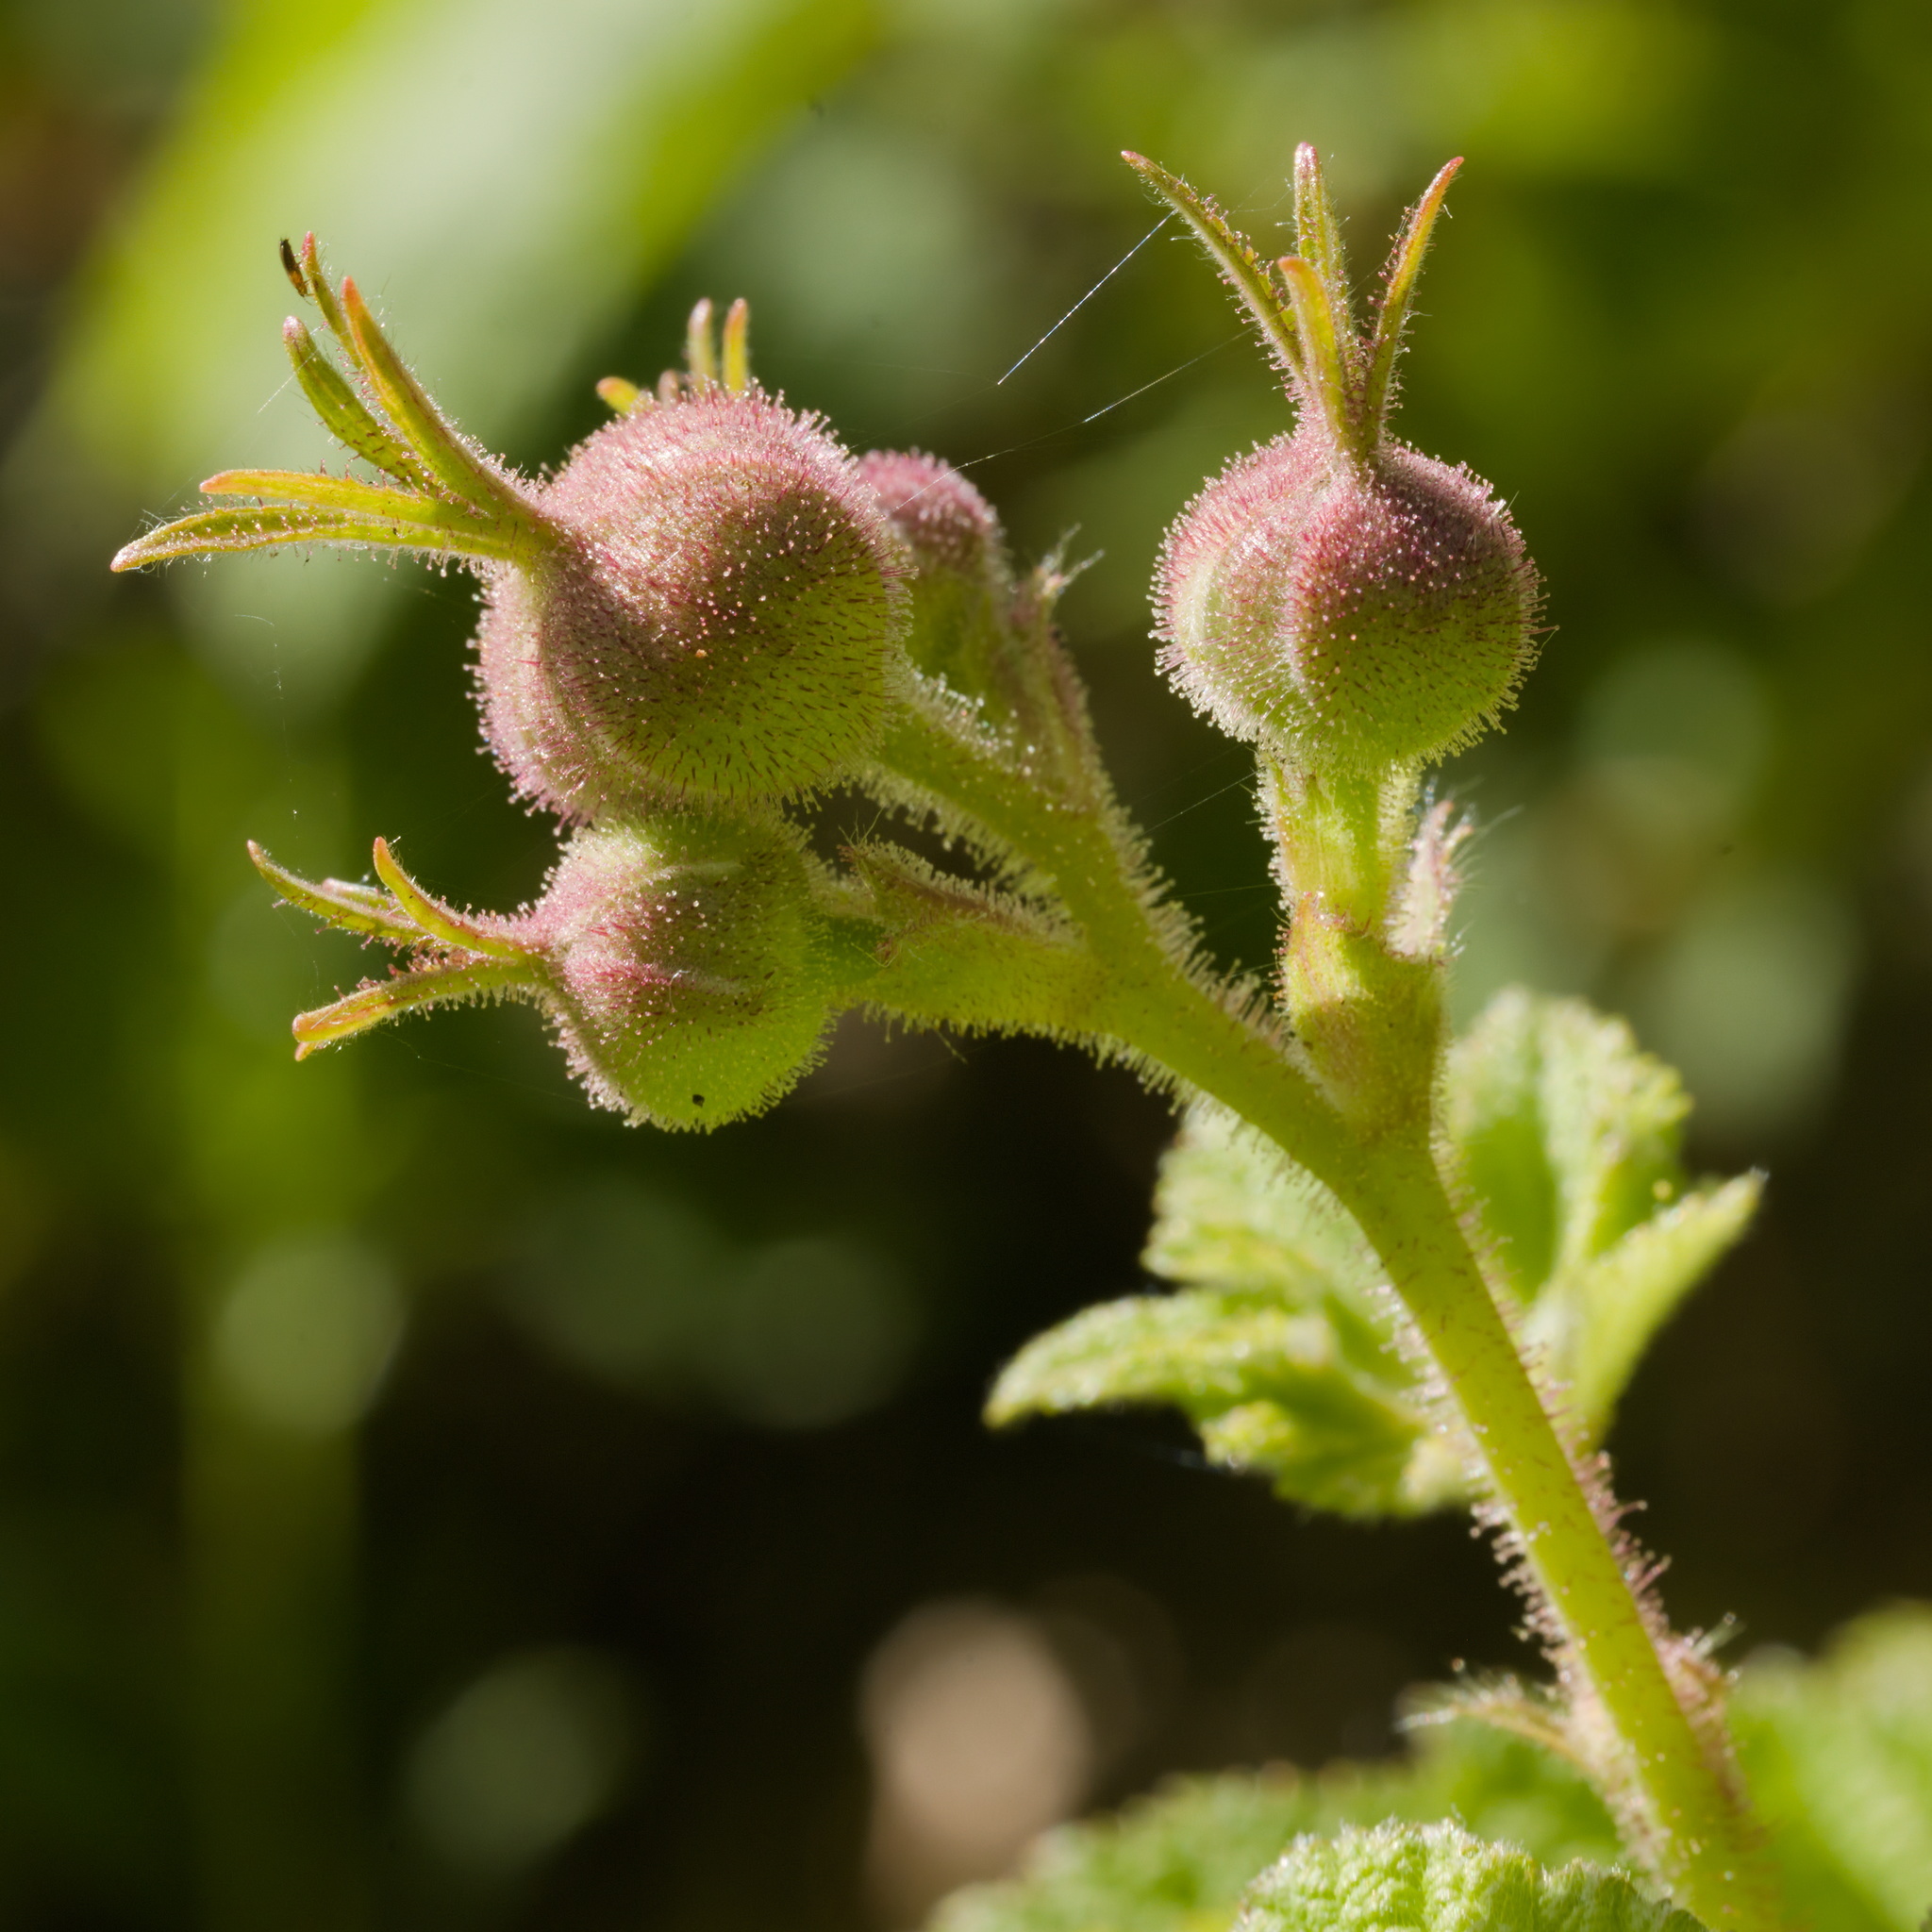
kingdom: Plantae
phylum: Tracheophyta
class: Magnoliopsida
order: Rosales
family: Rosaceae
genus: Rubus
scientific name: Rubus parviflorus
